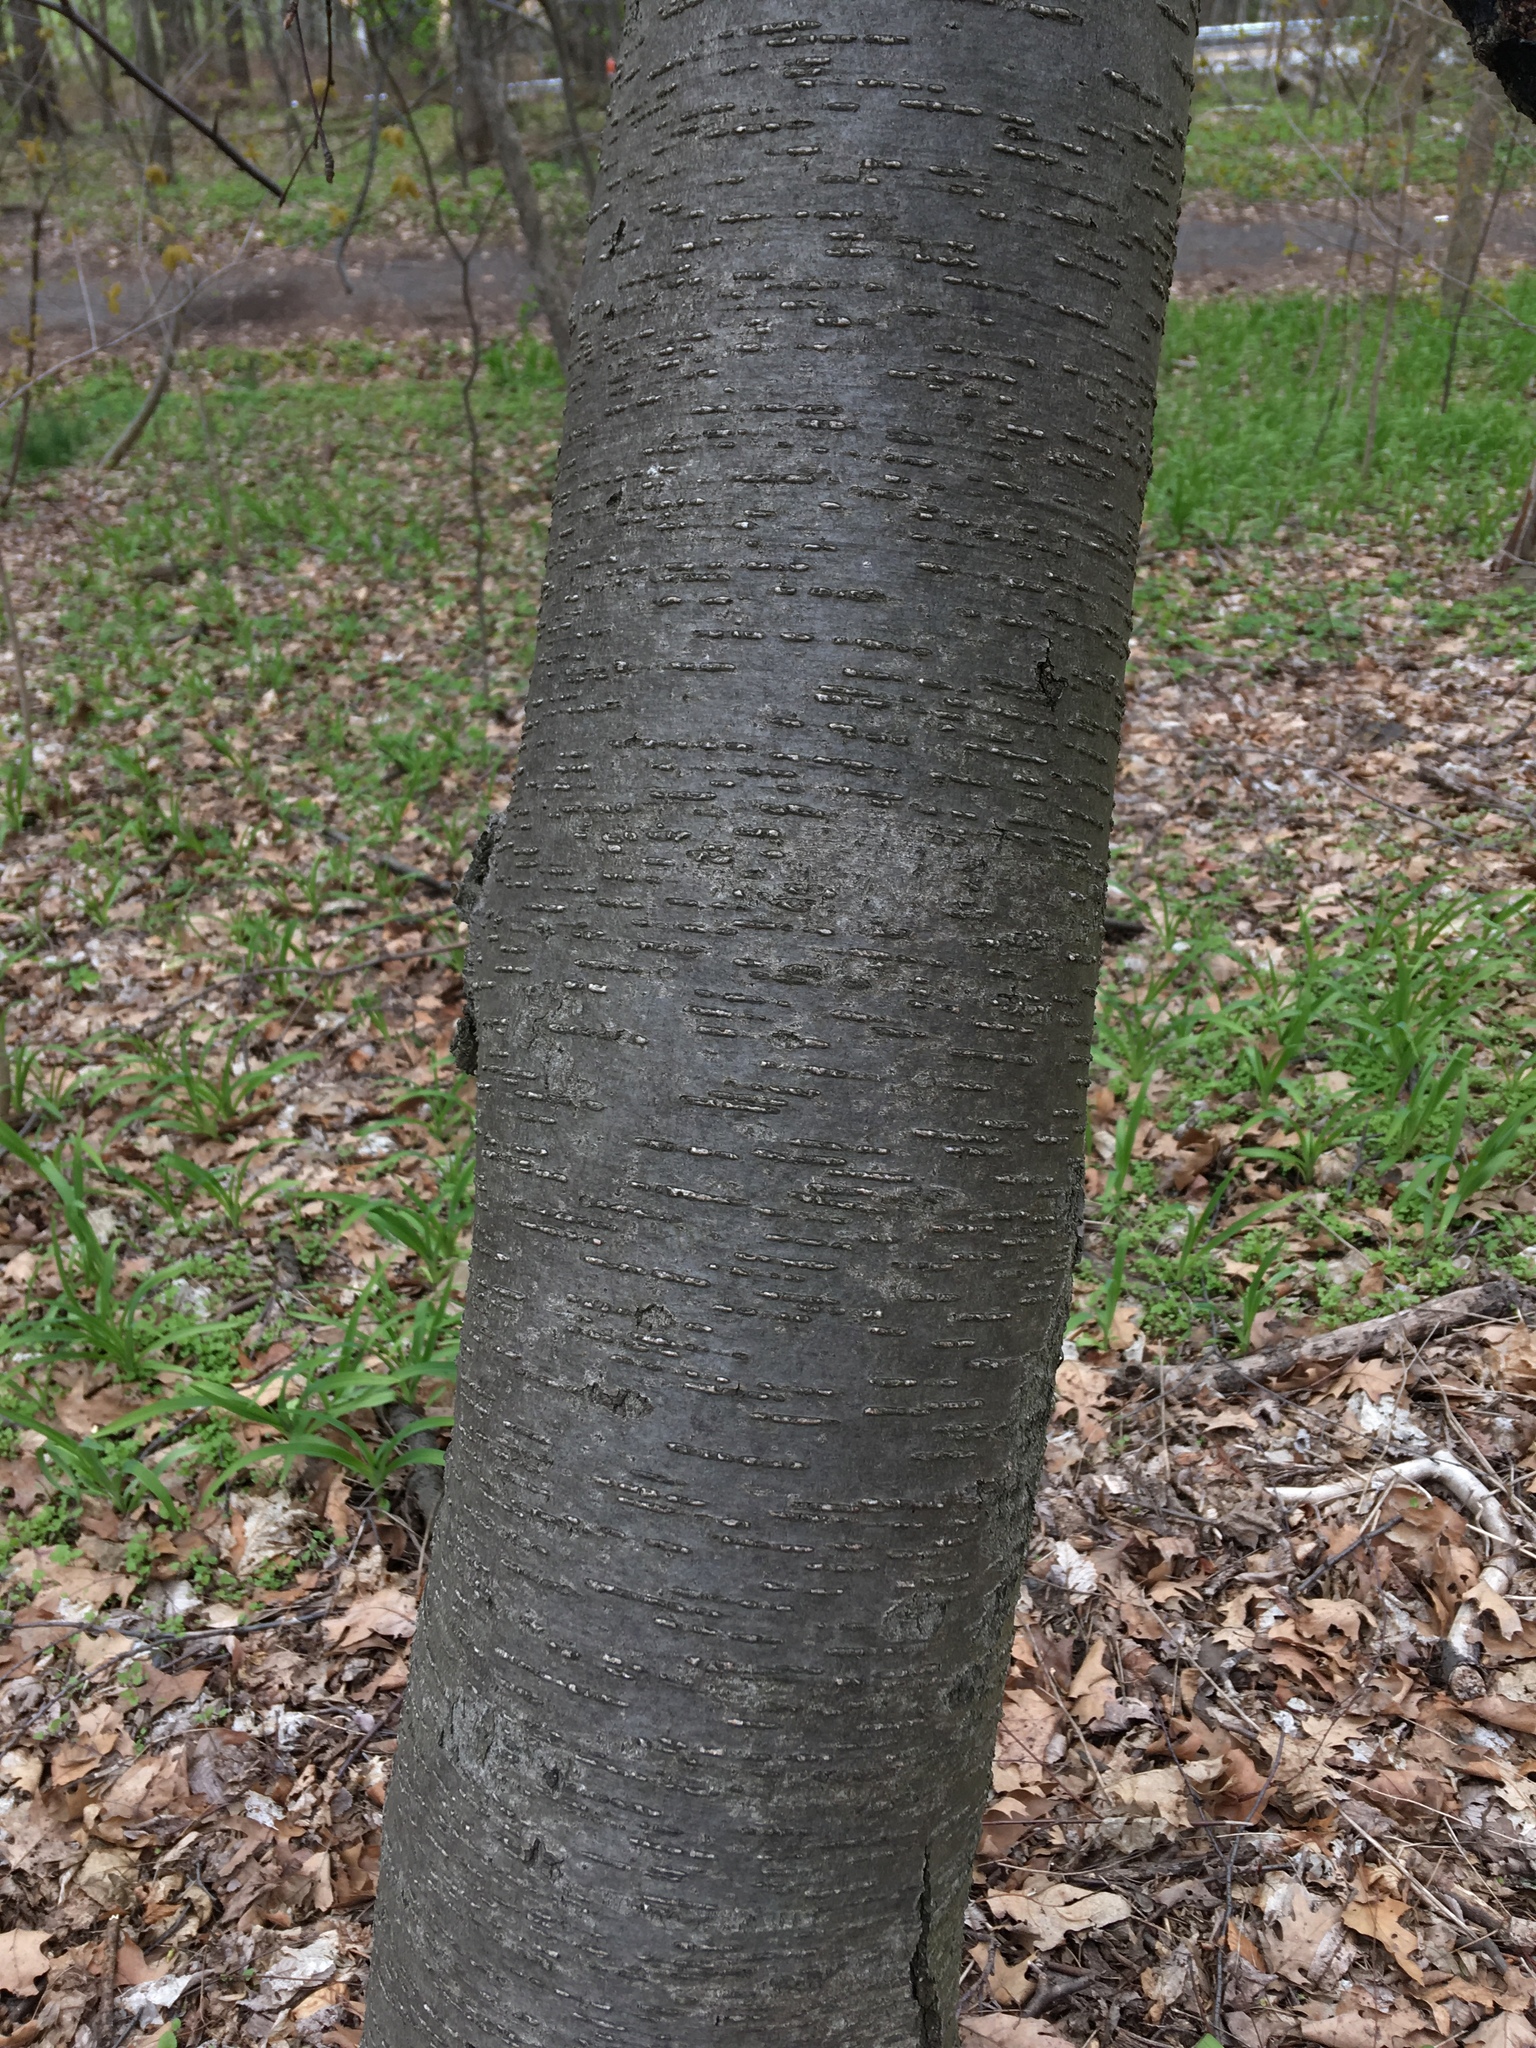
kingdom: Plantae
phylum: Tracheophyta
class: Magnoliopsida
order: Fagales
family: Betulaceae
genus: Betula
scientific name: Betula lenta
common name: Black birch
